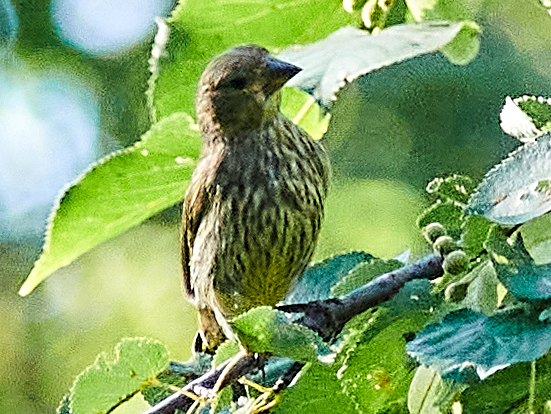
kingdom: Animalia
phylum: Chordata
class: Aves
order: Passeriformes
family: Fringillidae
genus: Carpodacus
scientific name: Carpodacus erythrinus
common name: Common rosefinch
